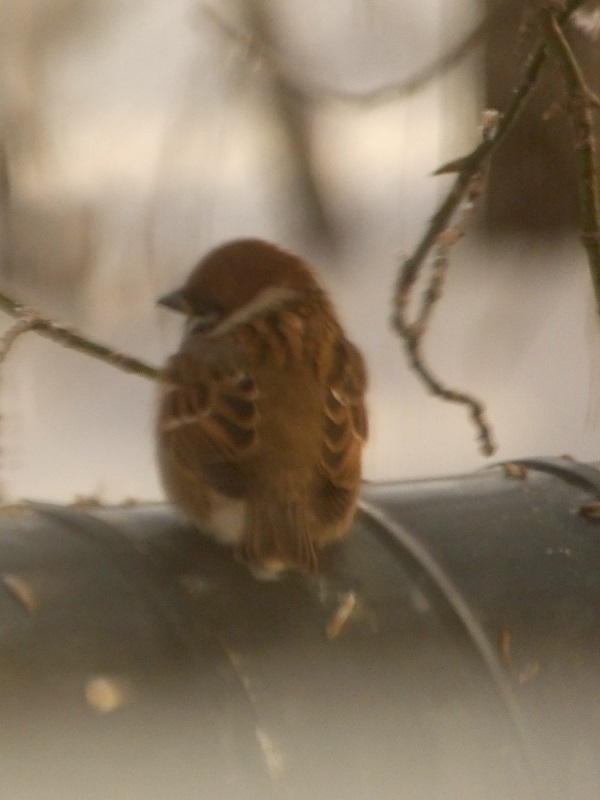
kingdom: Animalia
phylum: Chordata
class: Aves
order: Passeriformes
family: Passeridae
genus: Passer
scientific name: Passer montanus
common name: Eurasian tree sparrow
